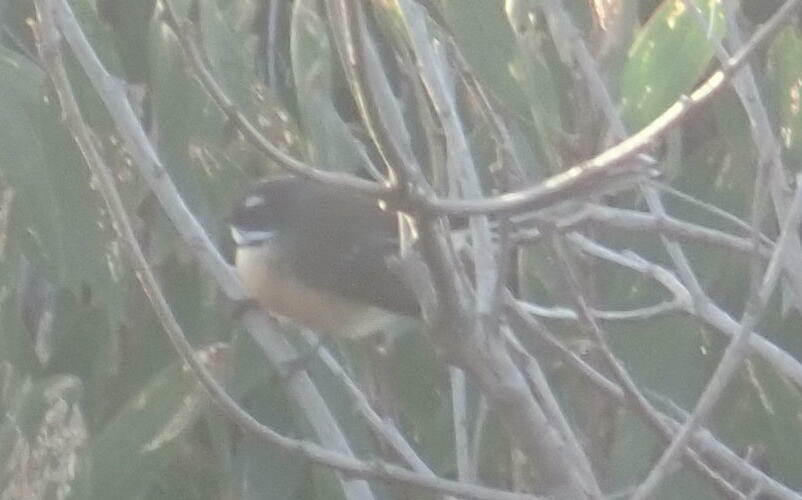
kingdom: Animalia
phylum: Chordata
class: Aves
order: Passeriformes
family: Rhipiduridae
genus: Rhipidura
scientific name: Rhipidura fuliginosa
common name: New zealand fantail
